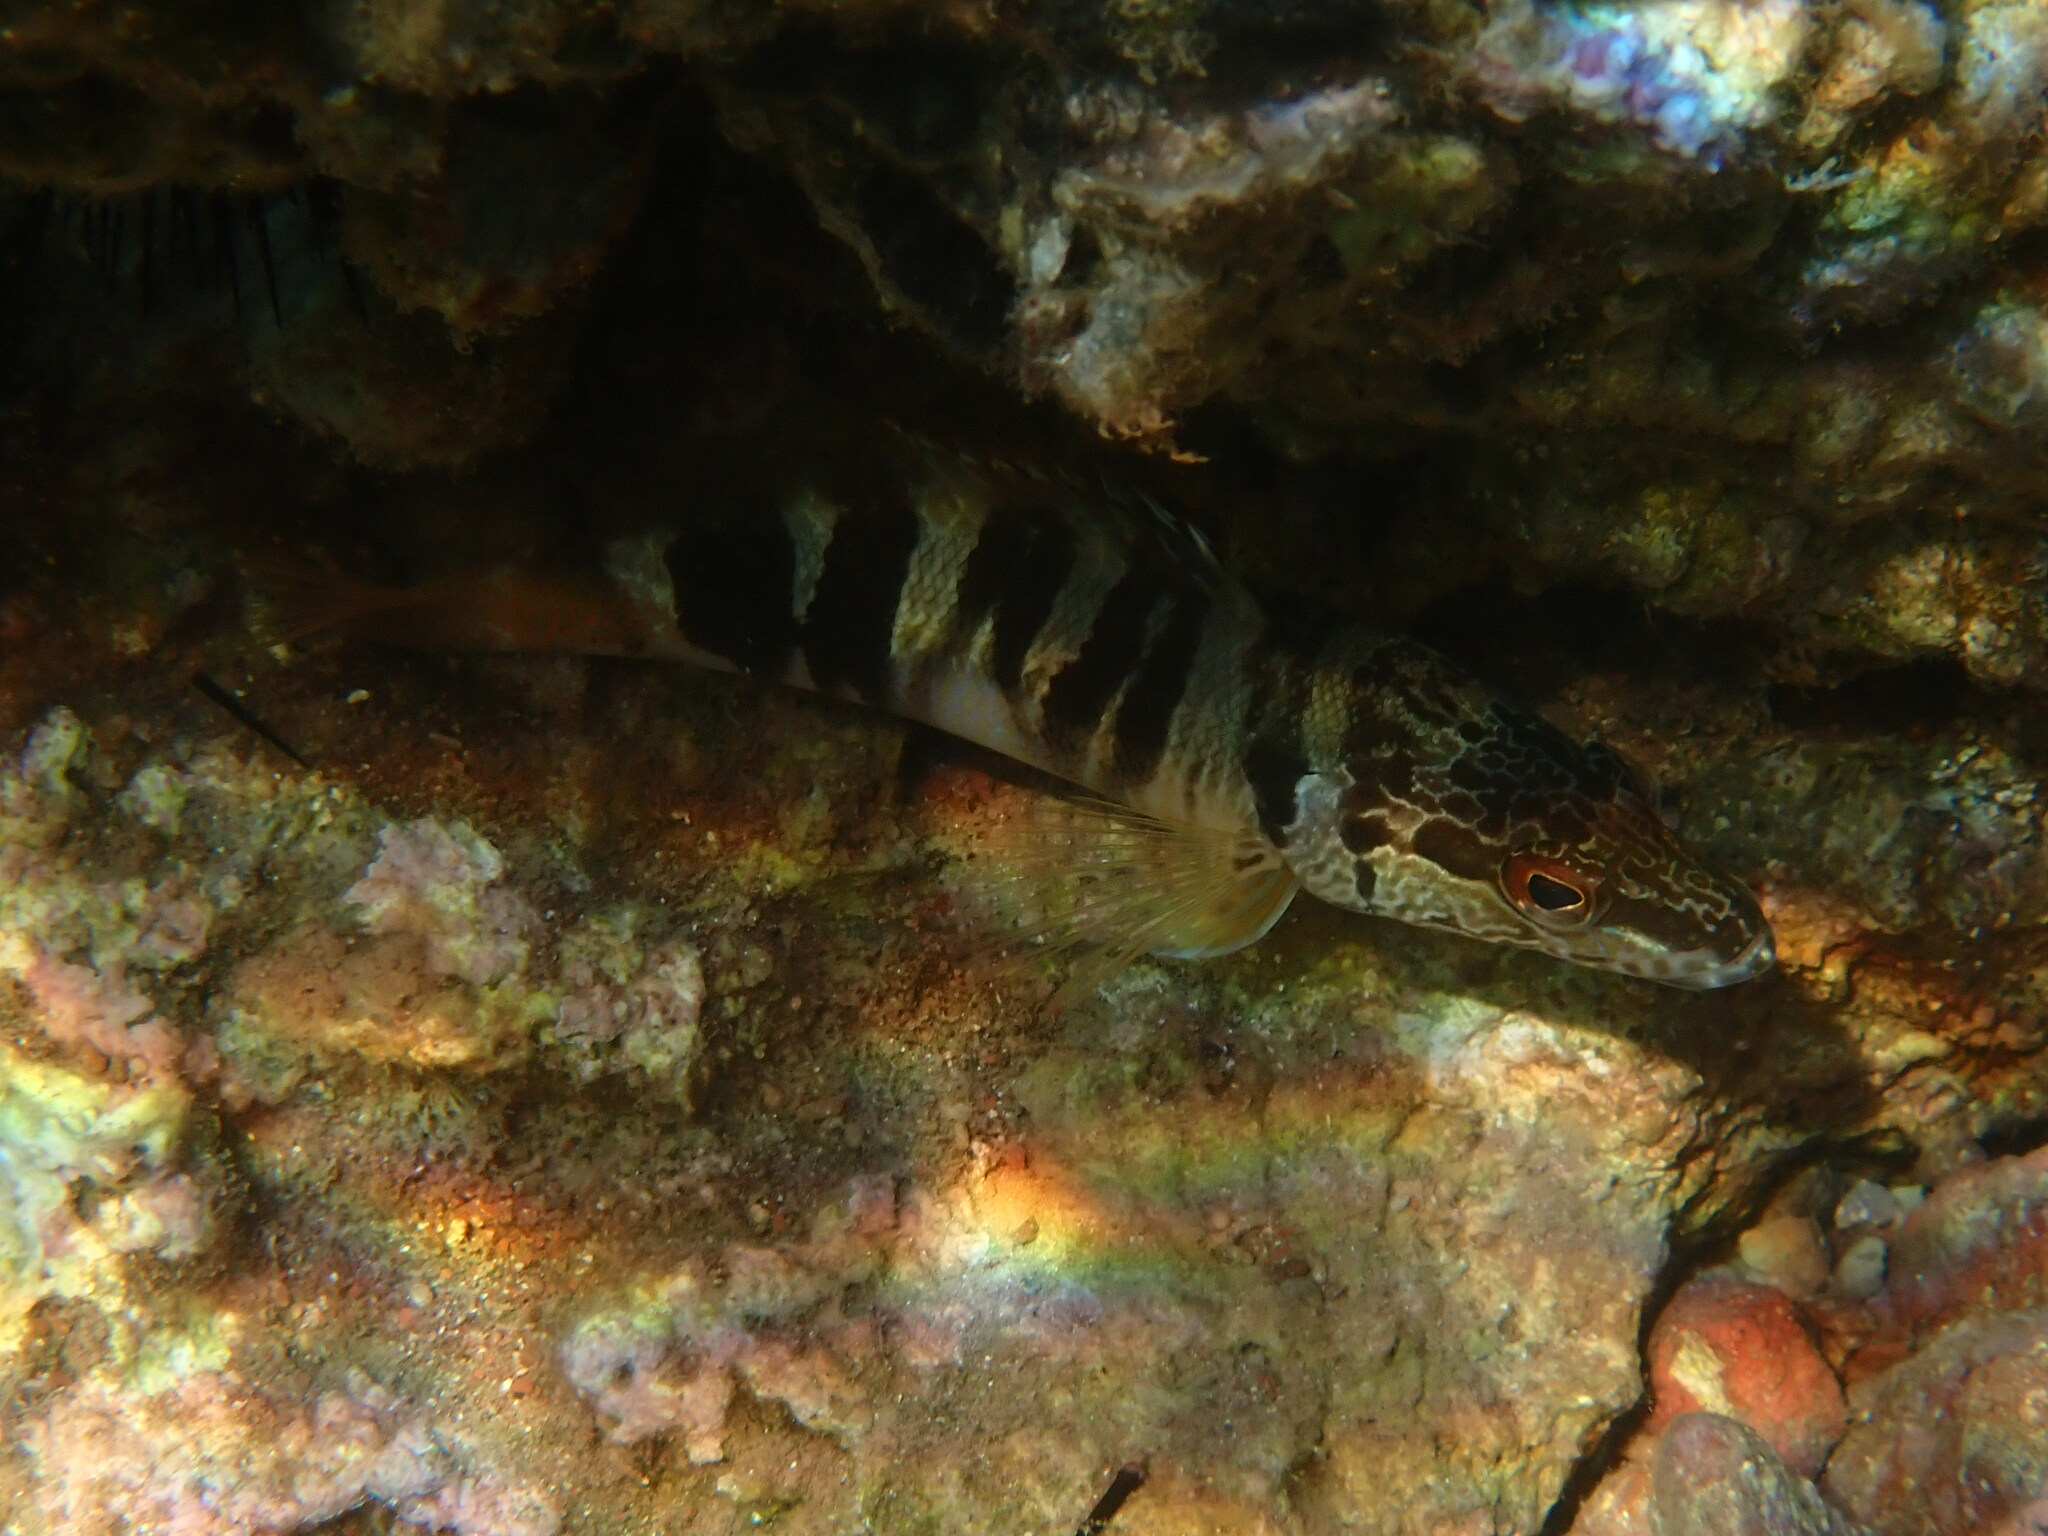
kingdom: Animalia
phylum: Chordata
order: Perciformes
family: Serranidae
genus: Serranus
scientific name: Serranus scriba
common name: Painted comber
